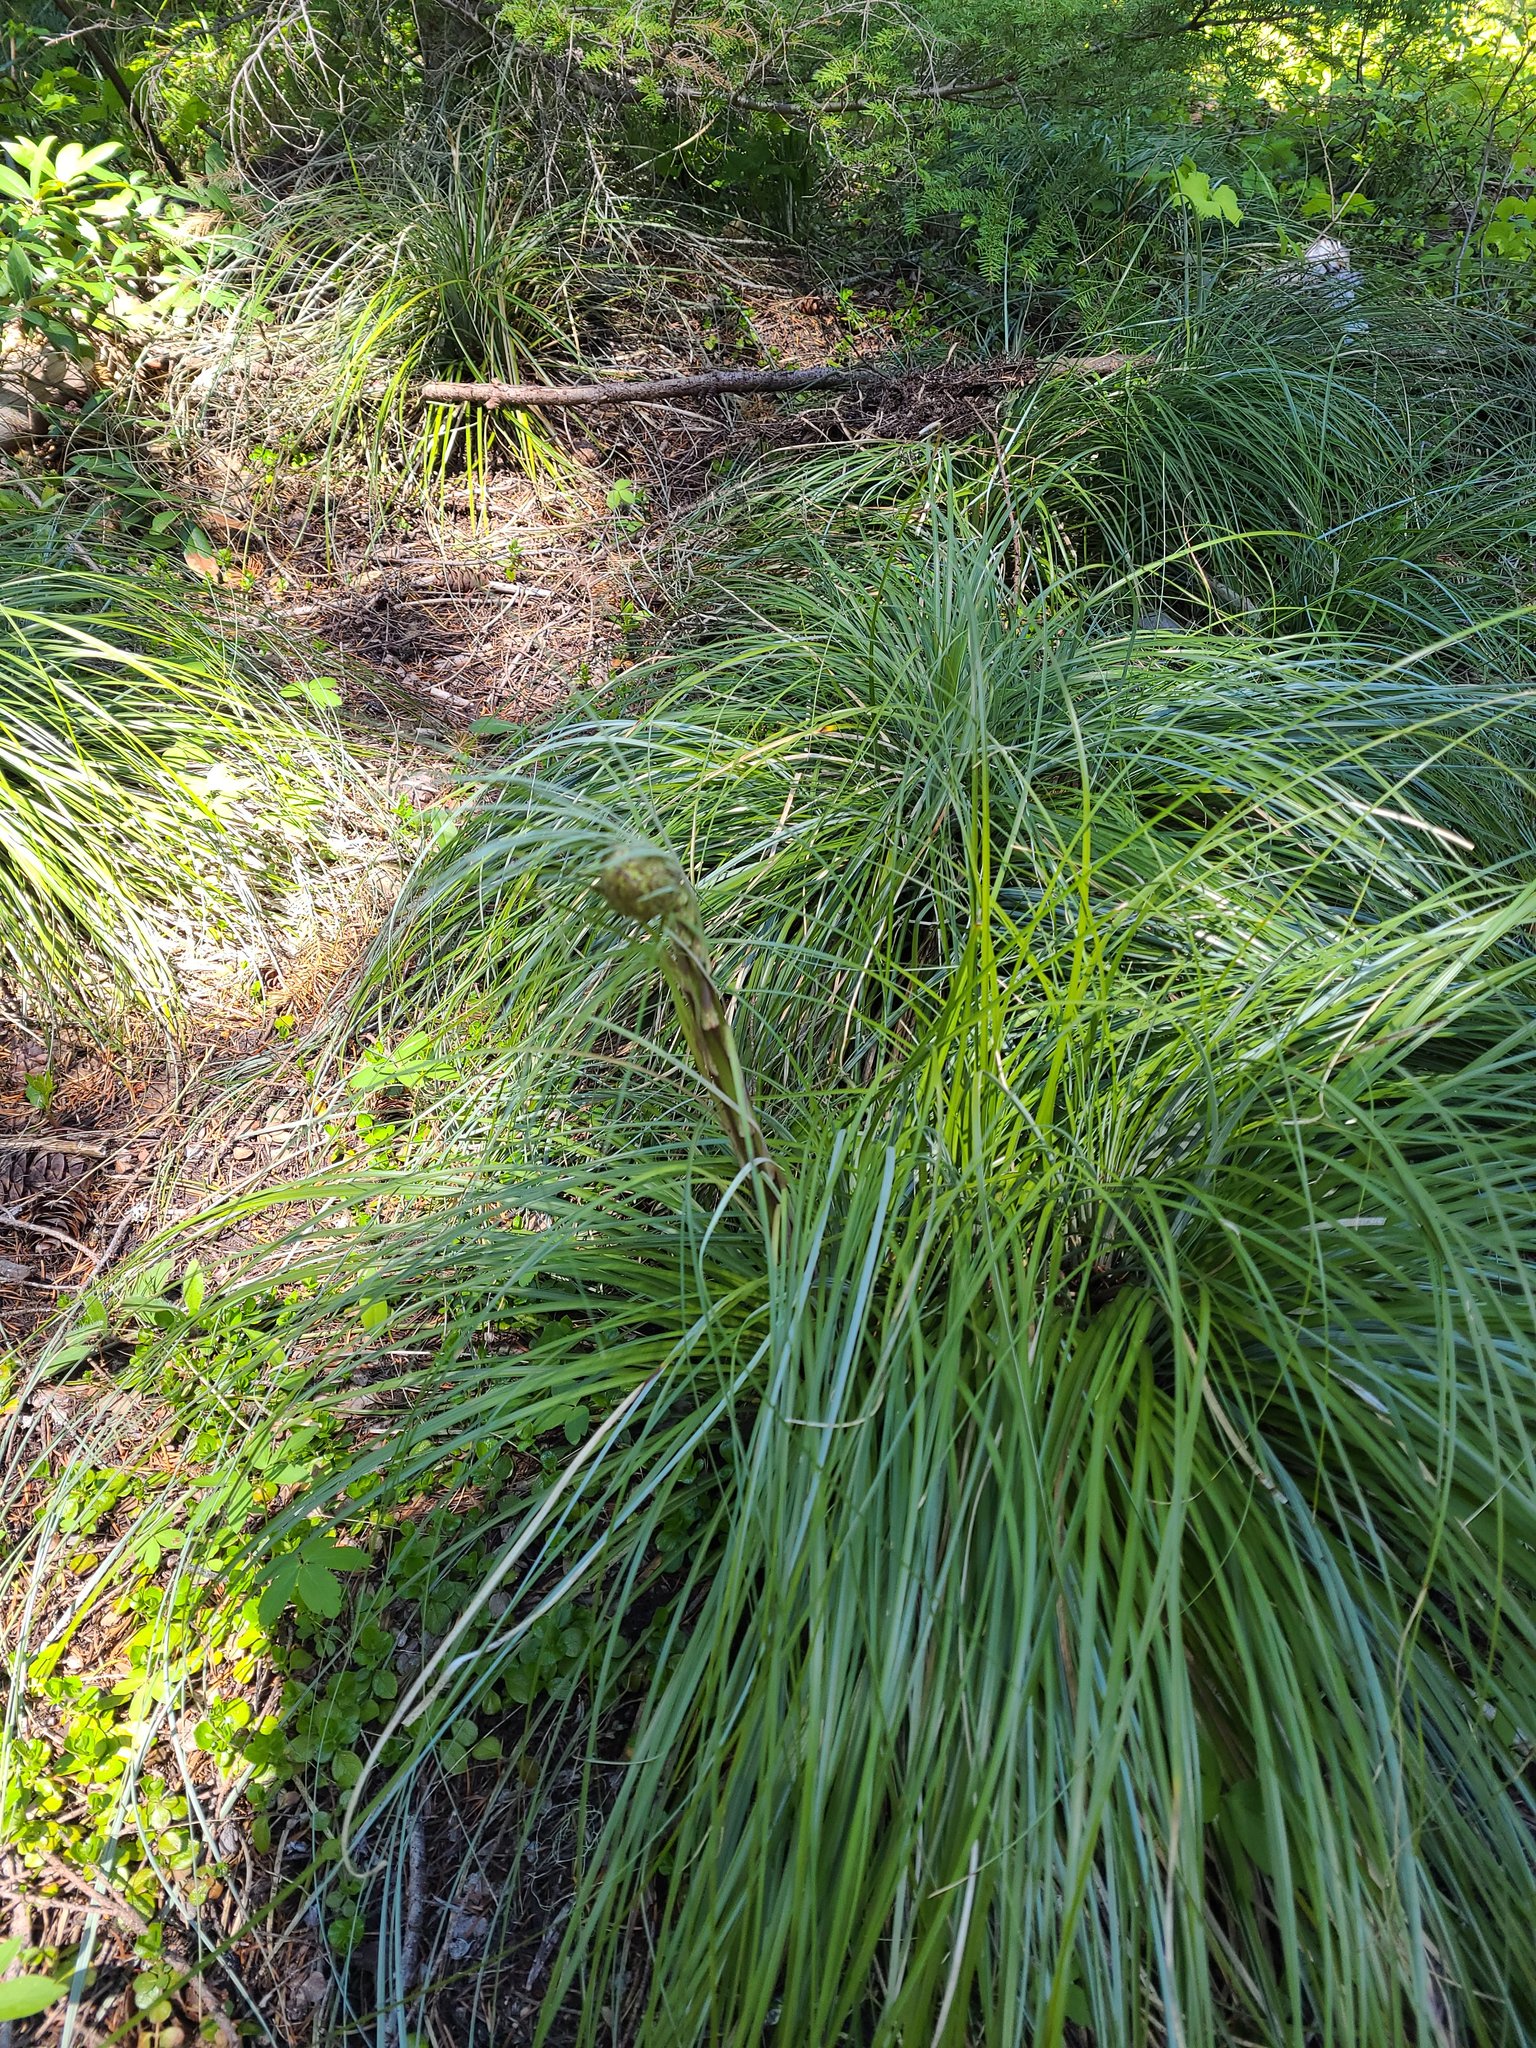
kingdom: Plantae
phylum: Tracheophyta
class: Liliopsida
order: Liliales
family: Melanthiaceae
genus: Xerophyllum
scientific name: Xerophyllum tenax
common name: Bear-grass
